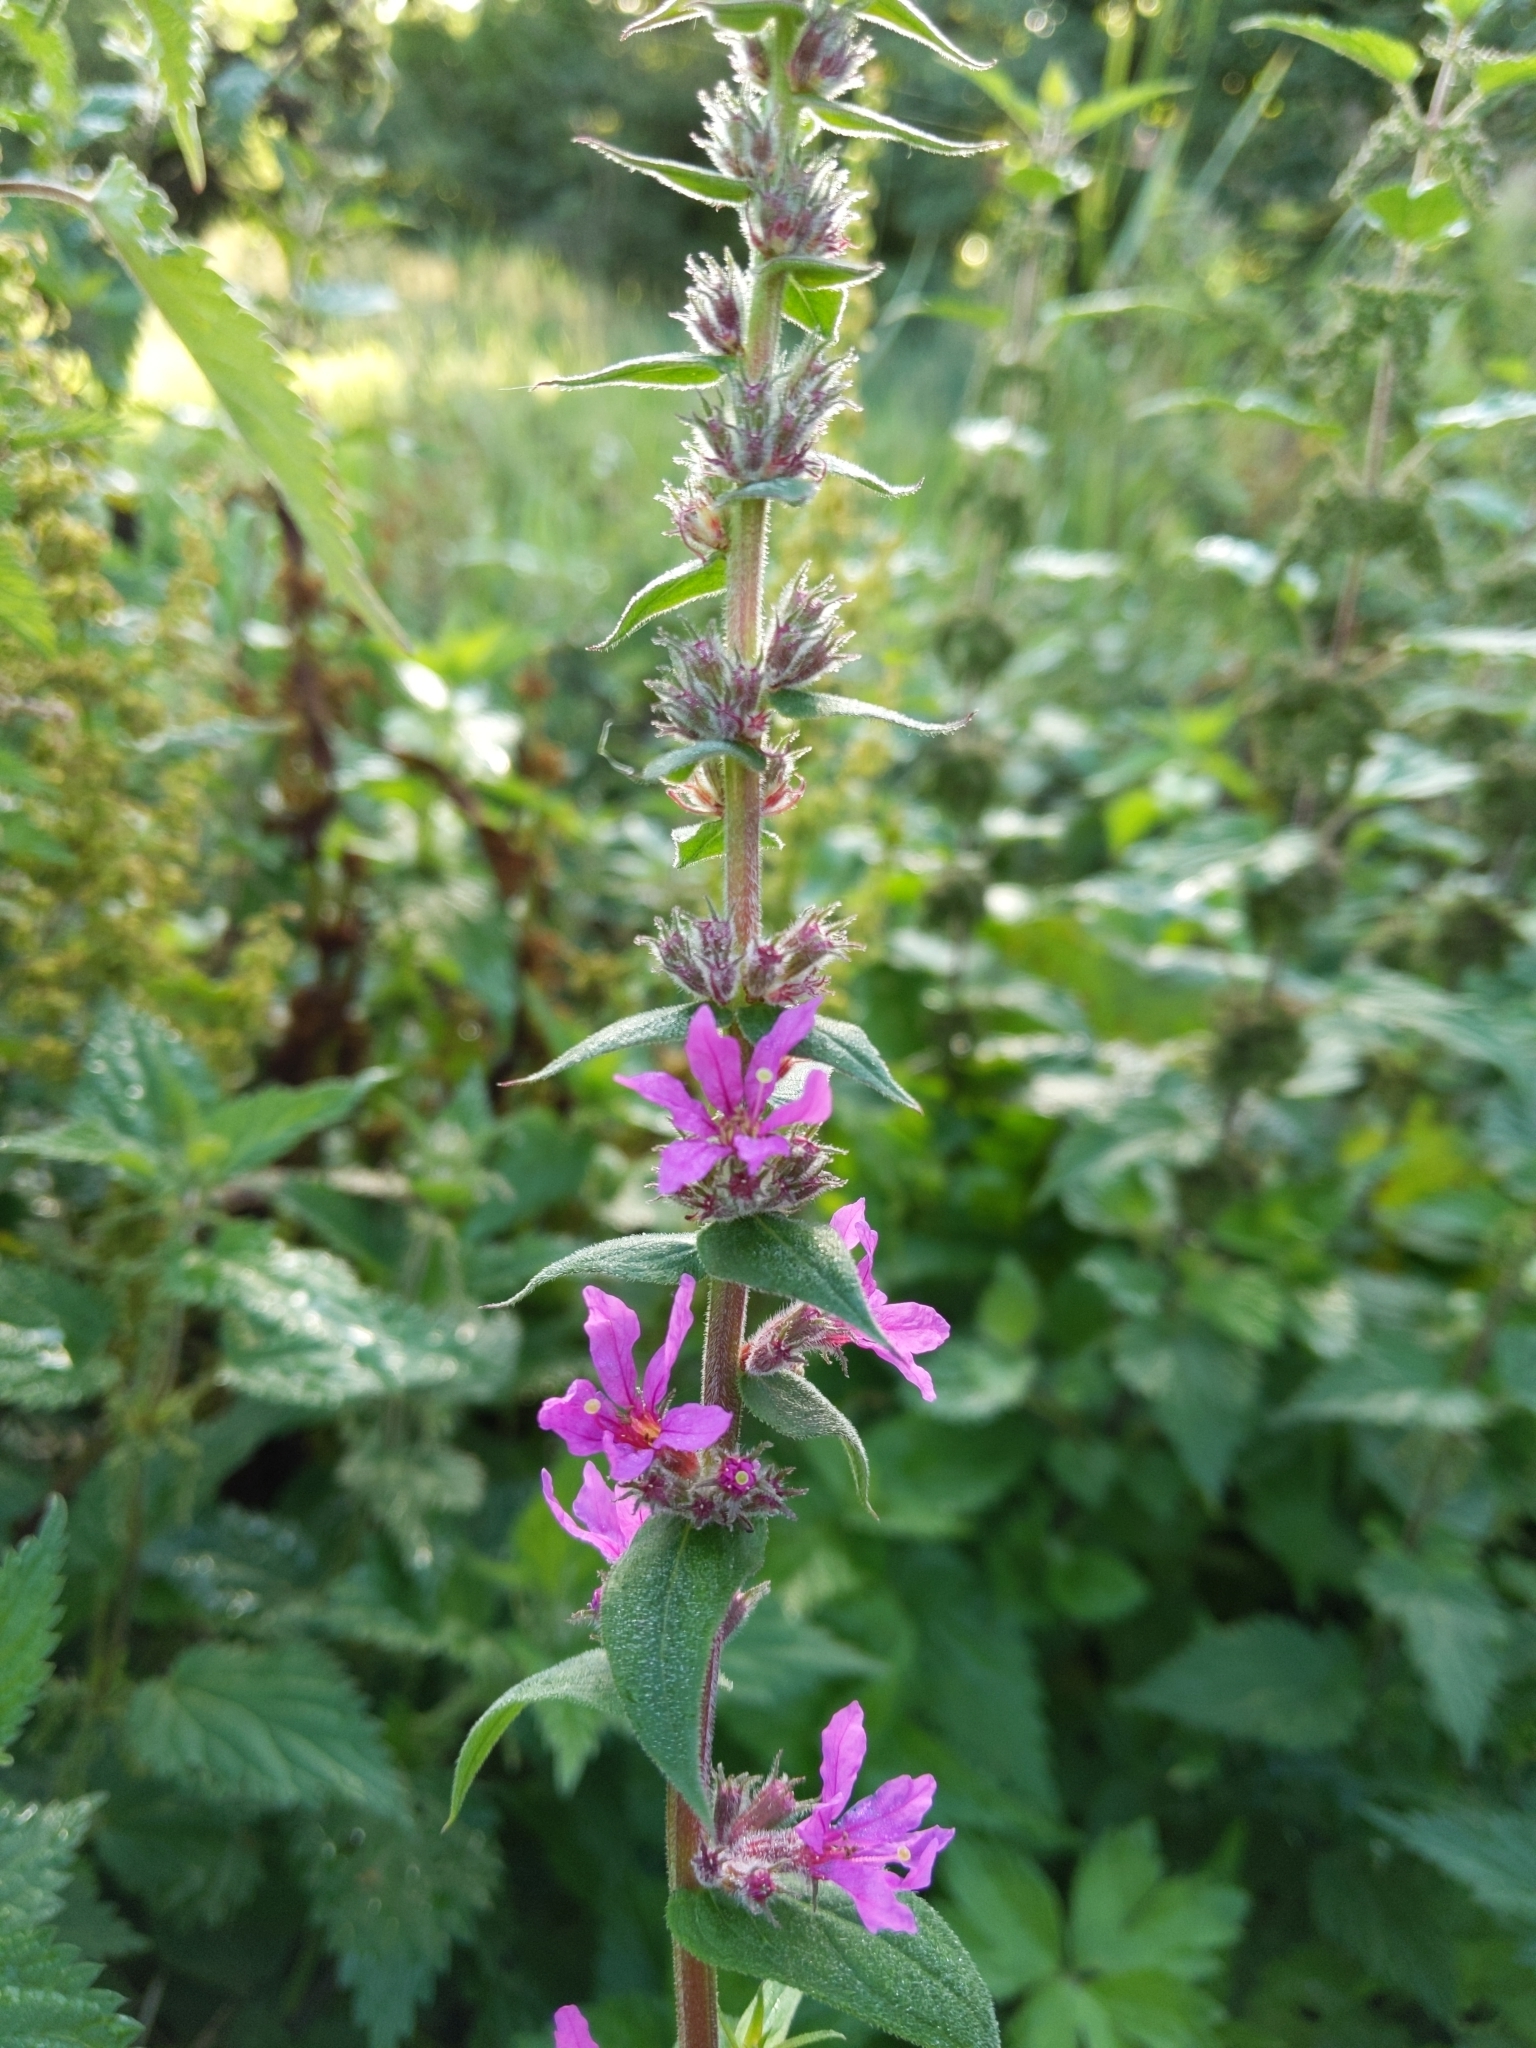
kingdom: Plantae
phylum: Tracheophyta
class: Magnoliopsida
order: Myrtales
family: Lythraceae
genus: Lythrum
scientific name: Lythrum salicaria
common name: Purple loosestrife
